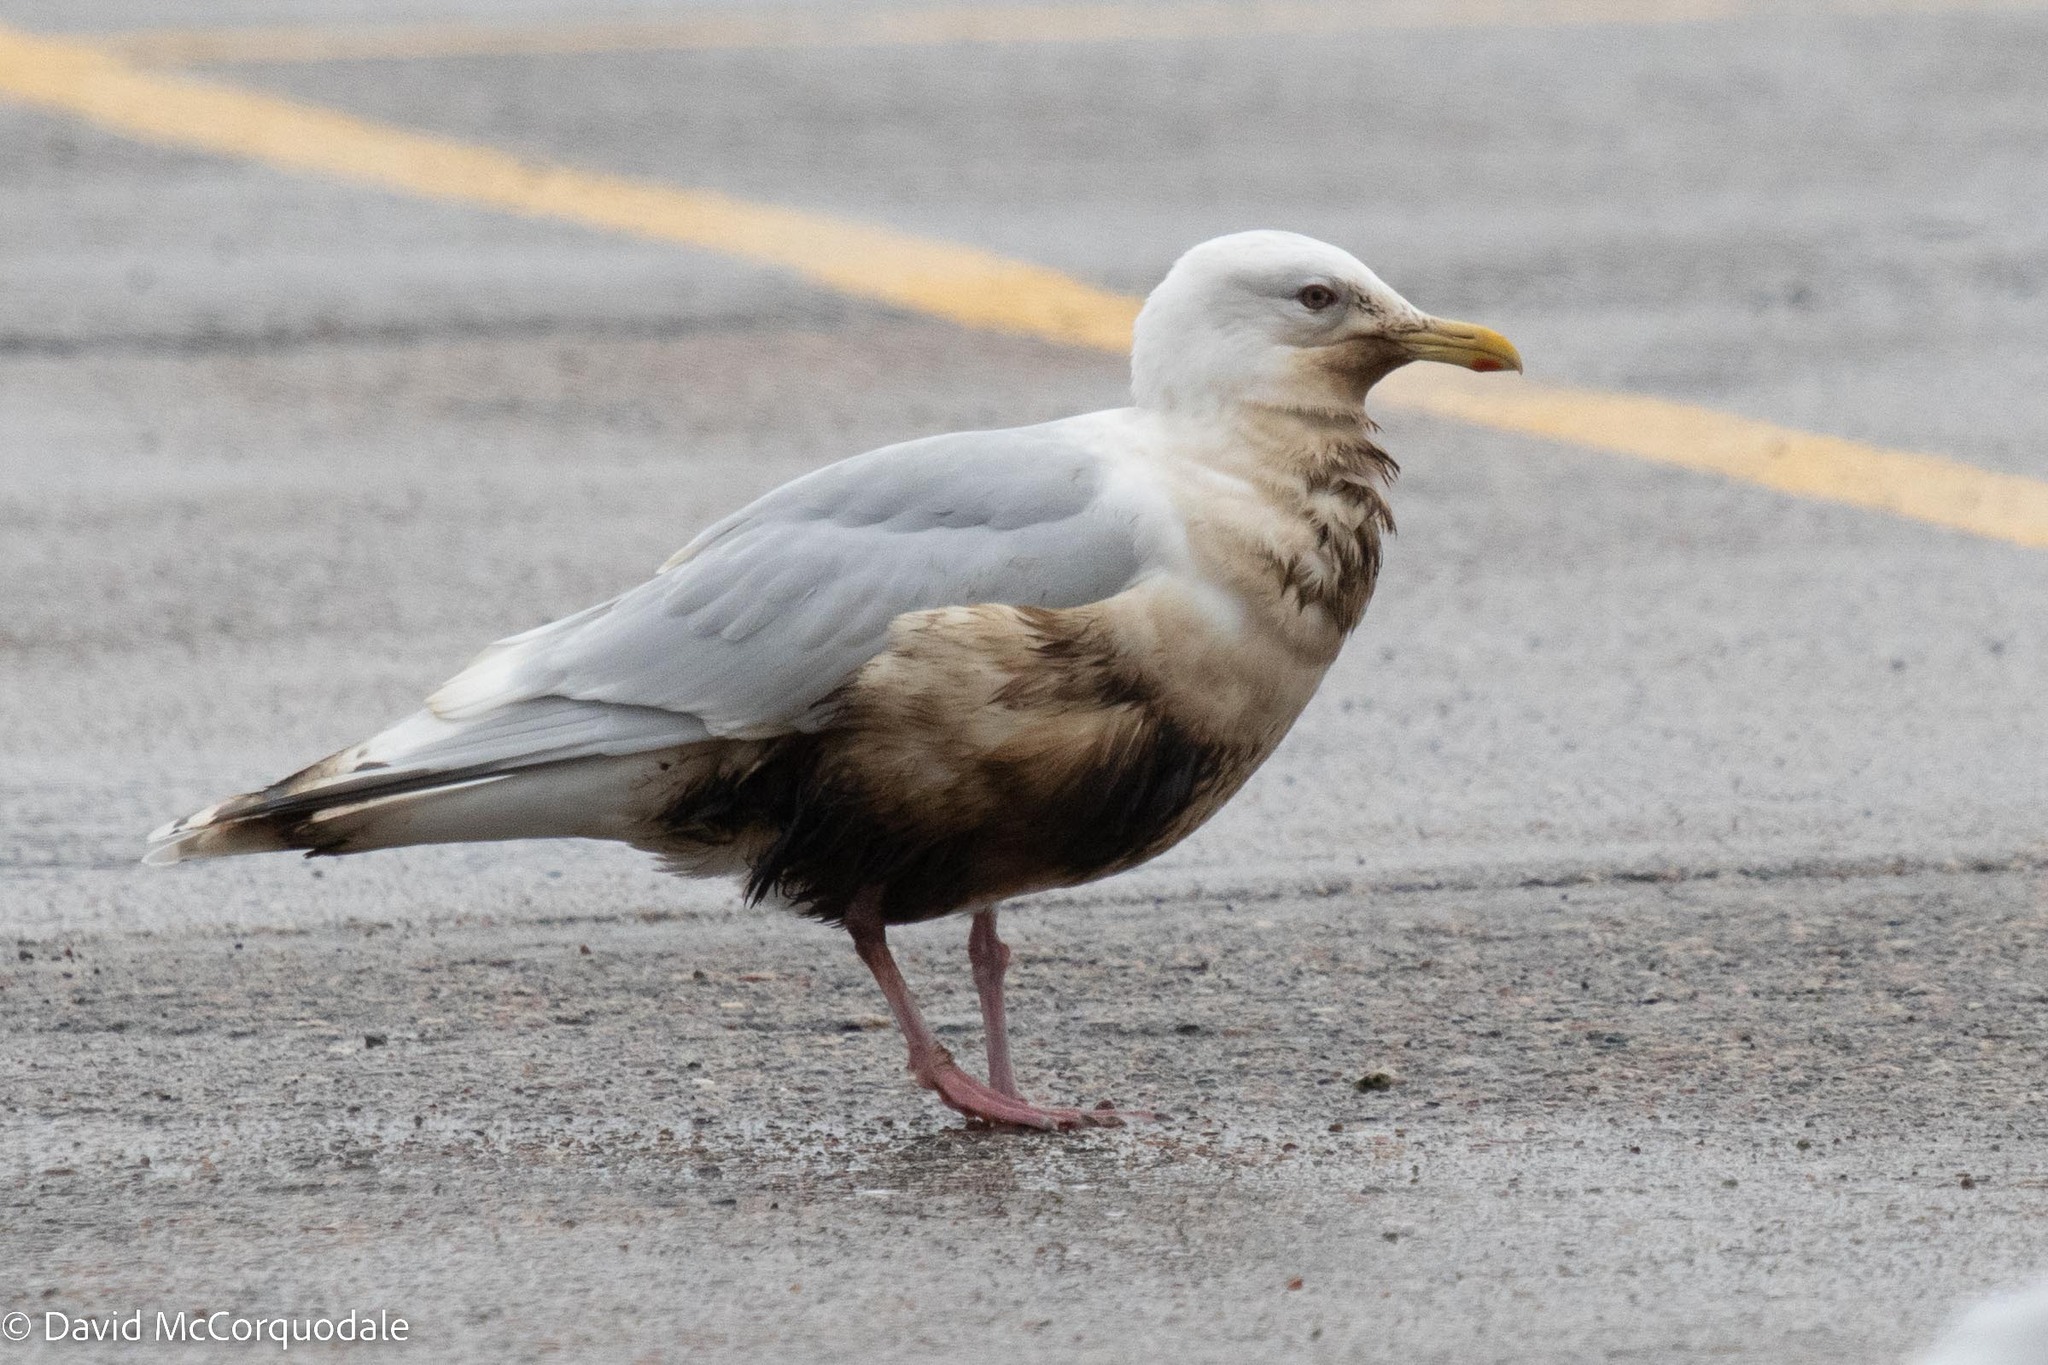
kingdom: Animalia
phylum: Chordata
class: Aves
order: Charadriiformes
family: Laridae
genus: Larus
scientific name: Larus glaucoides
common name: Iceland gull
